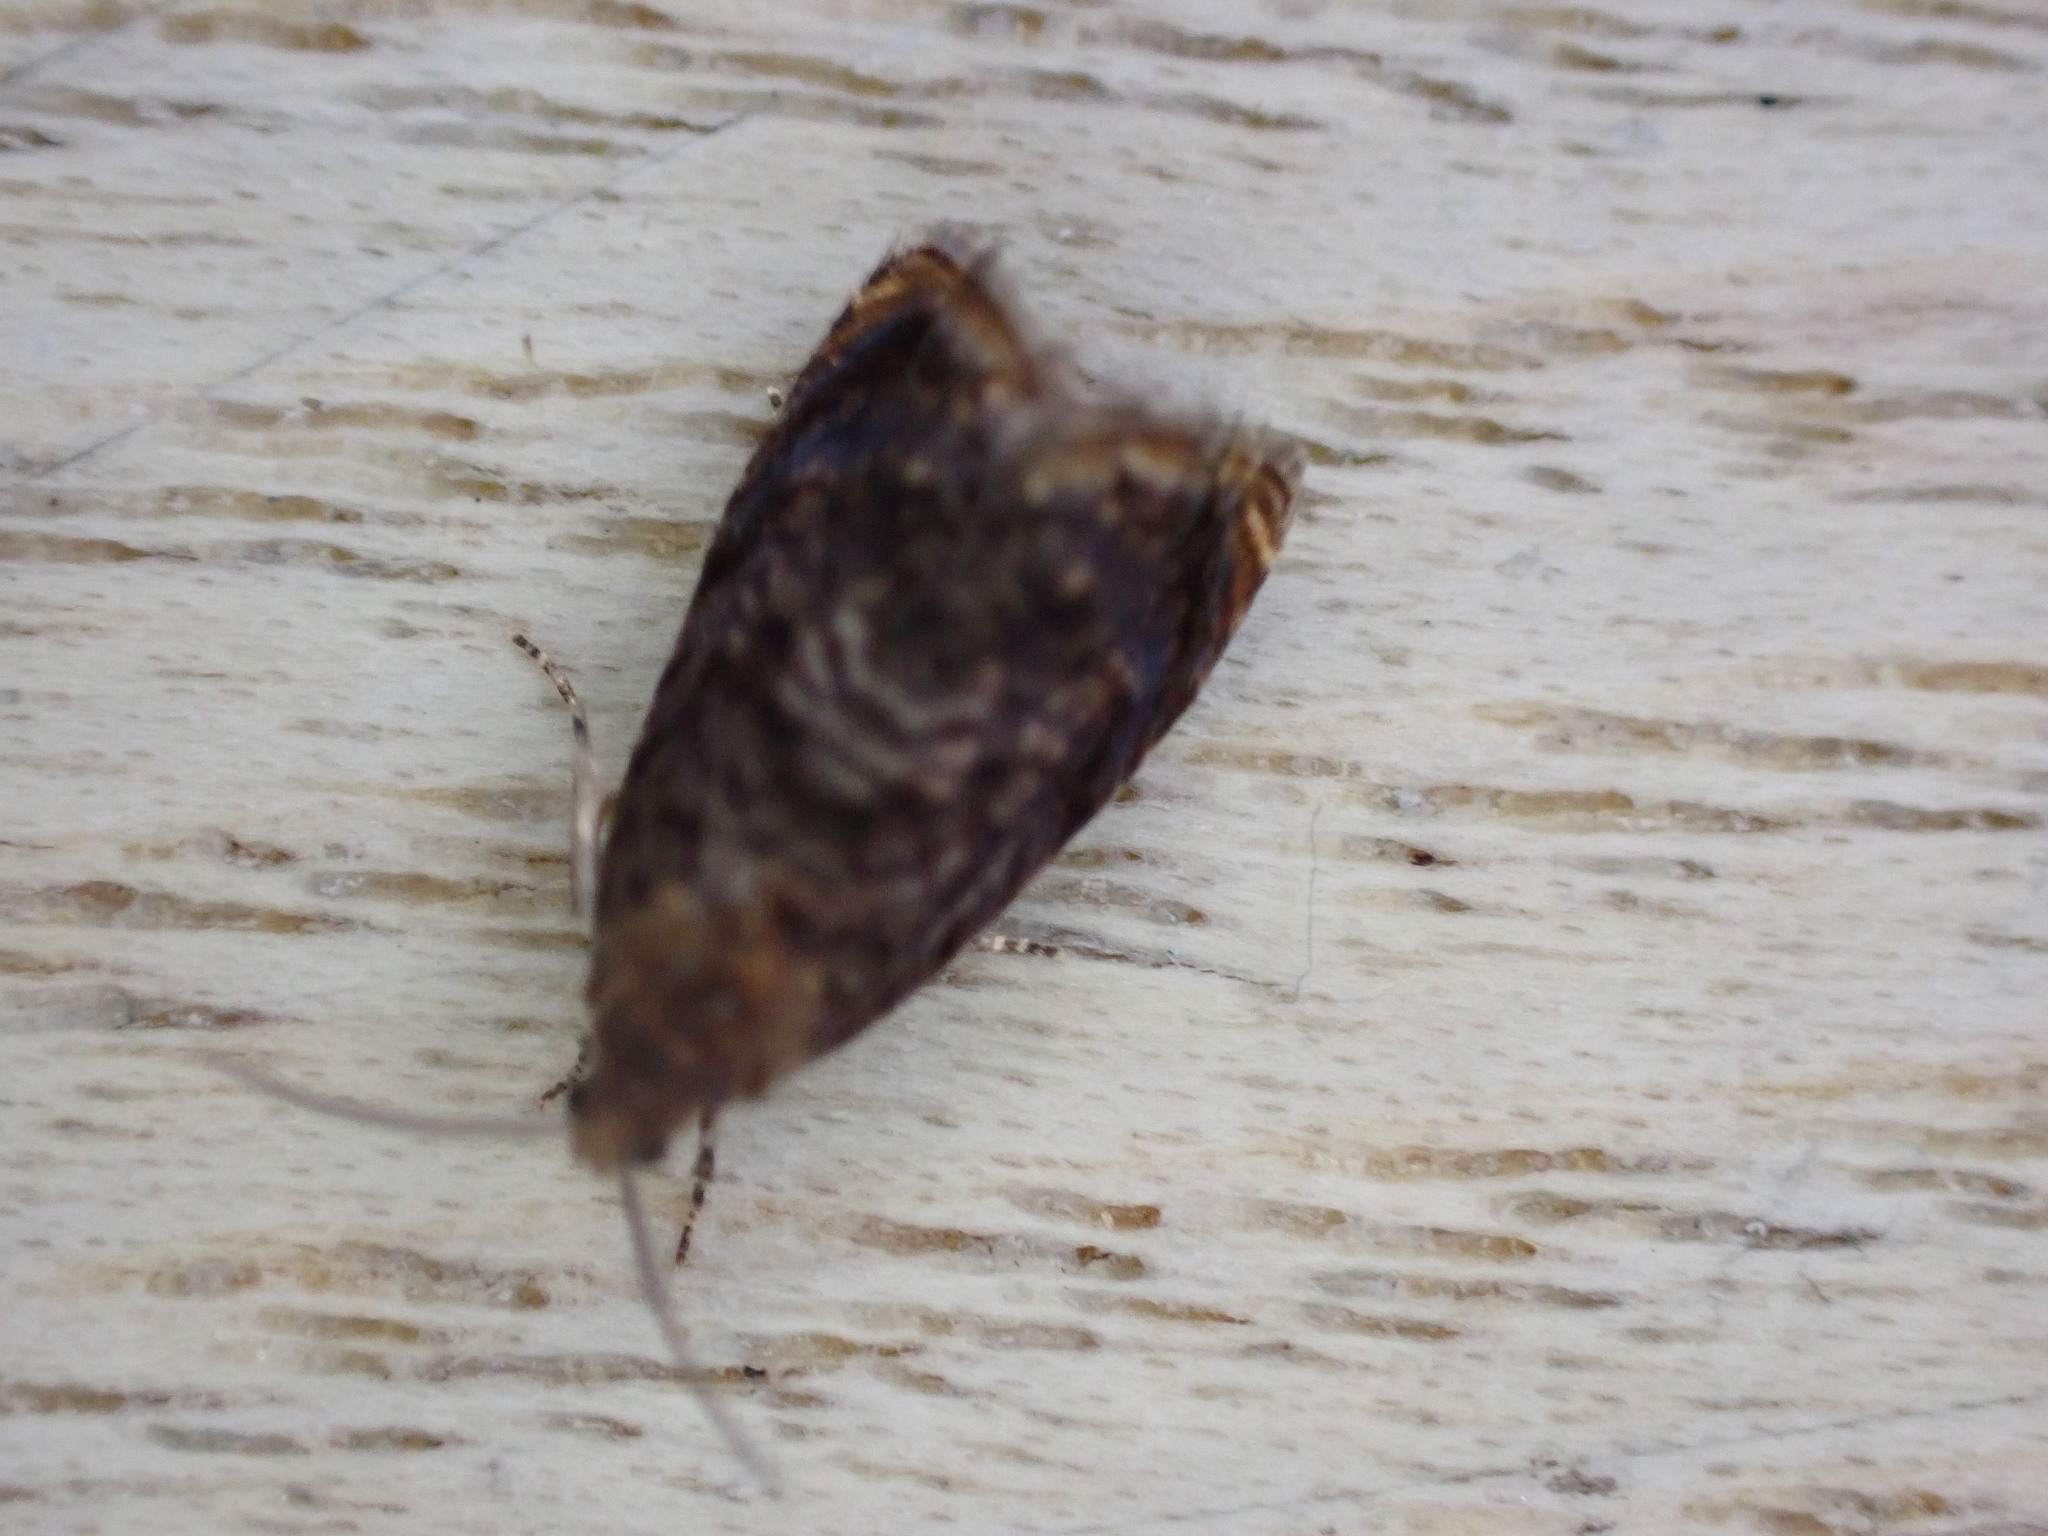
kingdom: Animalia
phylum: Arthropoda
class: Insecta
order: Lepidoptera
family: Tortricidae
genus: Cydia
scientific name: Cydia fagiglandana
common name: Large beech piercer
